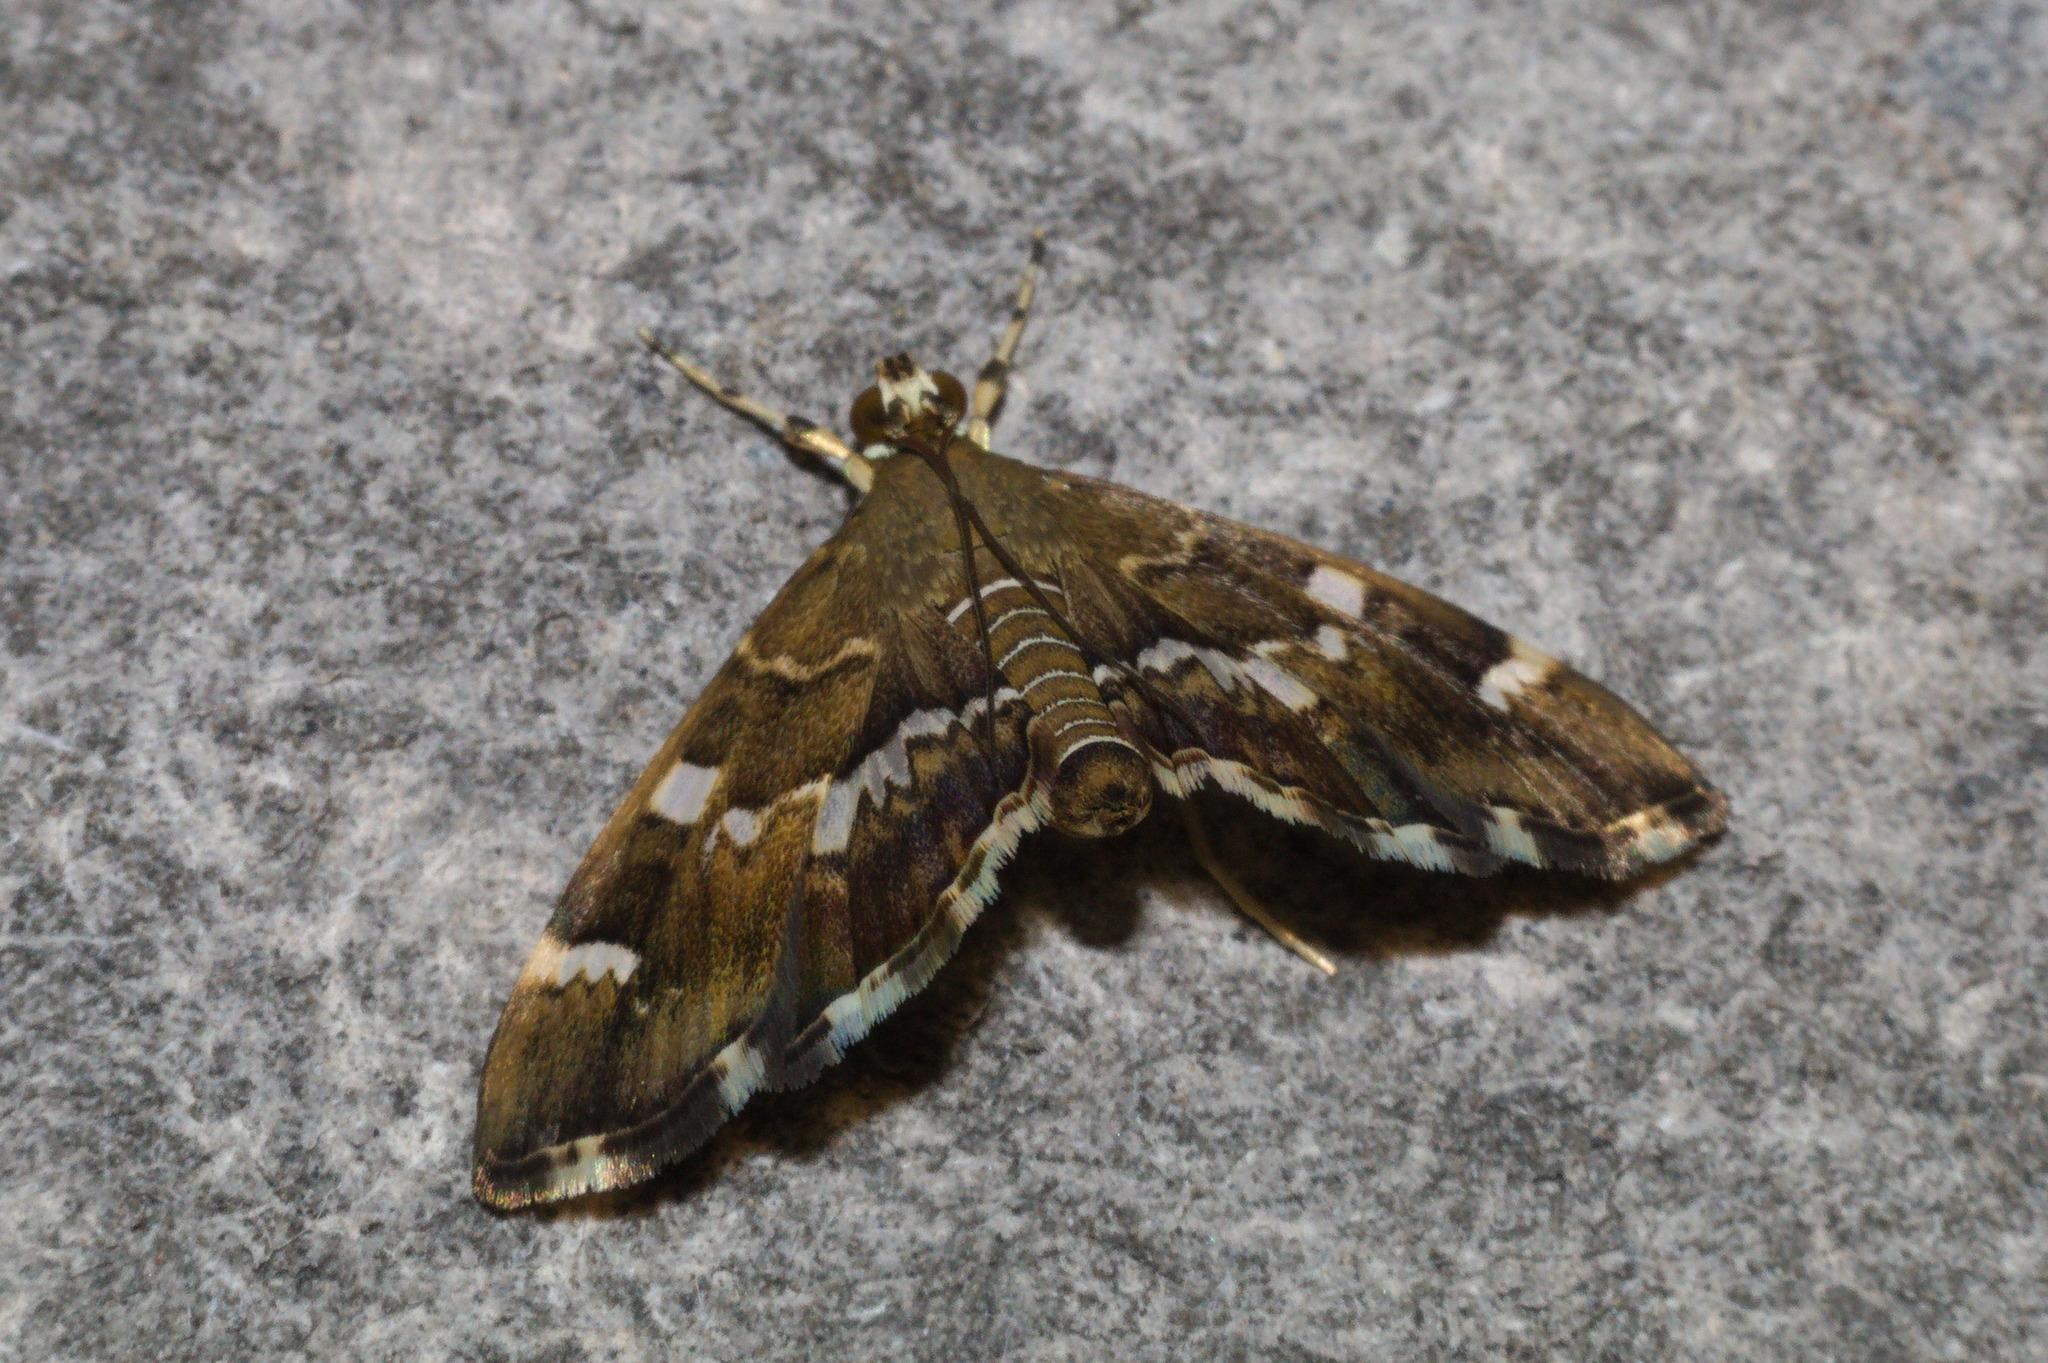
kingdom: Animalia
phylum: Arthropoda
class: Insecta
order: Lepidoptera
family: Crambidae
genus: Hymenia
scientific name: Hymenia perspectalis
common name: Spotted beet webworm
